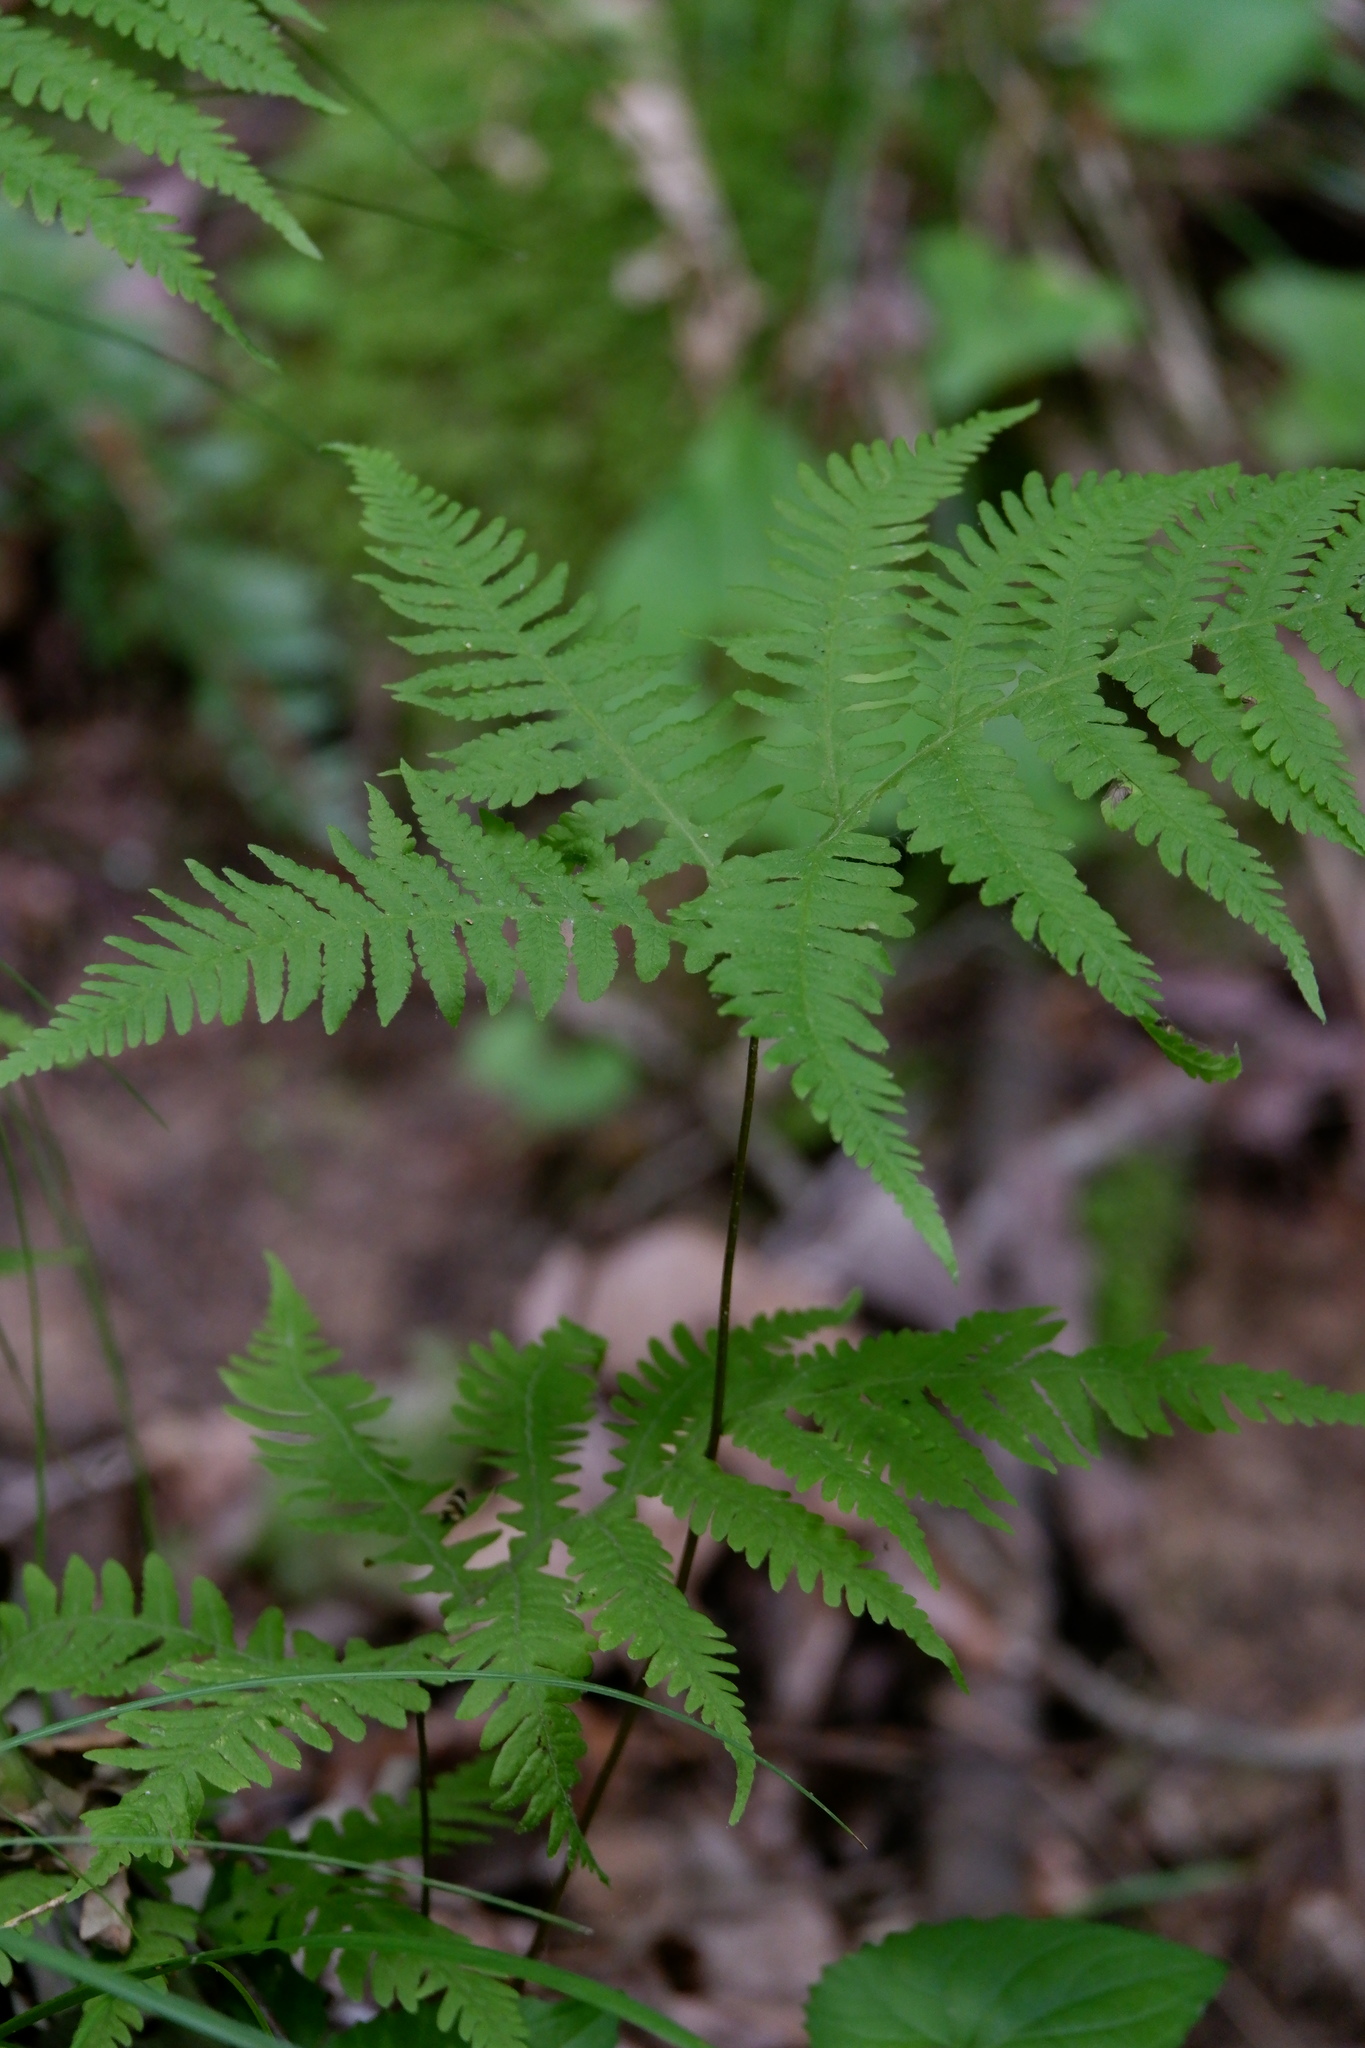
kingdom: Plantae
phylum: Tracheophyta
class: Polypodiopsida
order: Polypodiales
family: Thelypteridaceae
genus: Phegopteris
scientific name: Phegopteris hexagonoptera
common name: Broad beech fern
